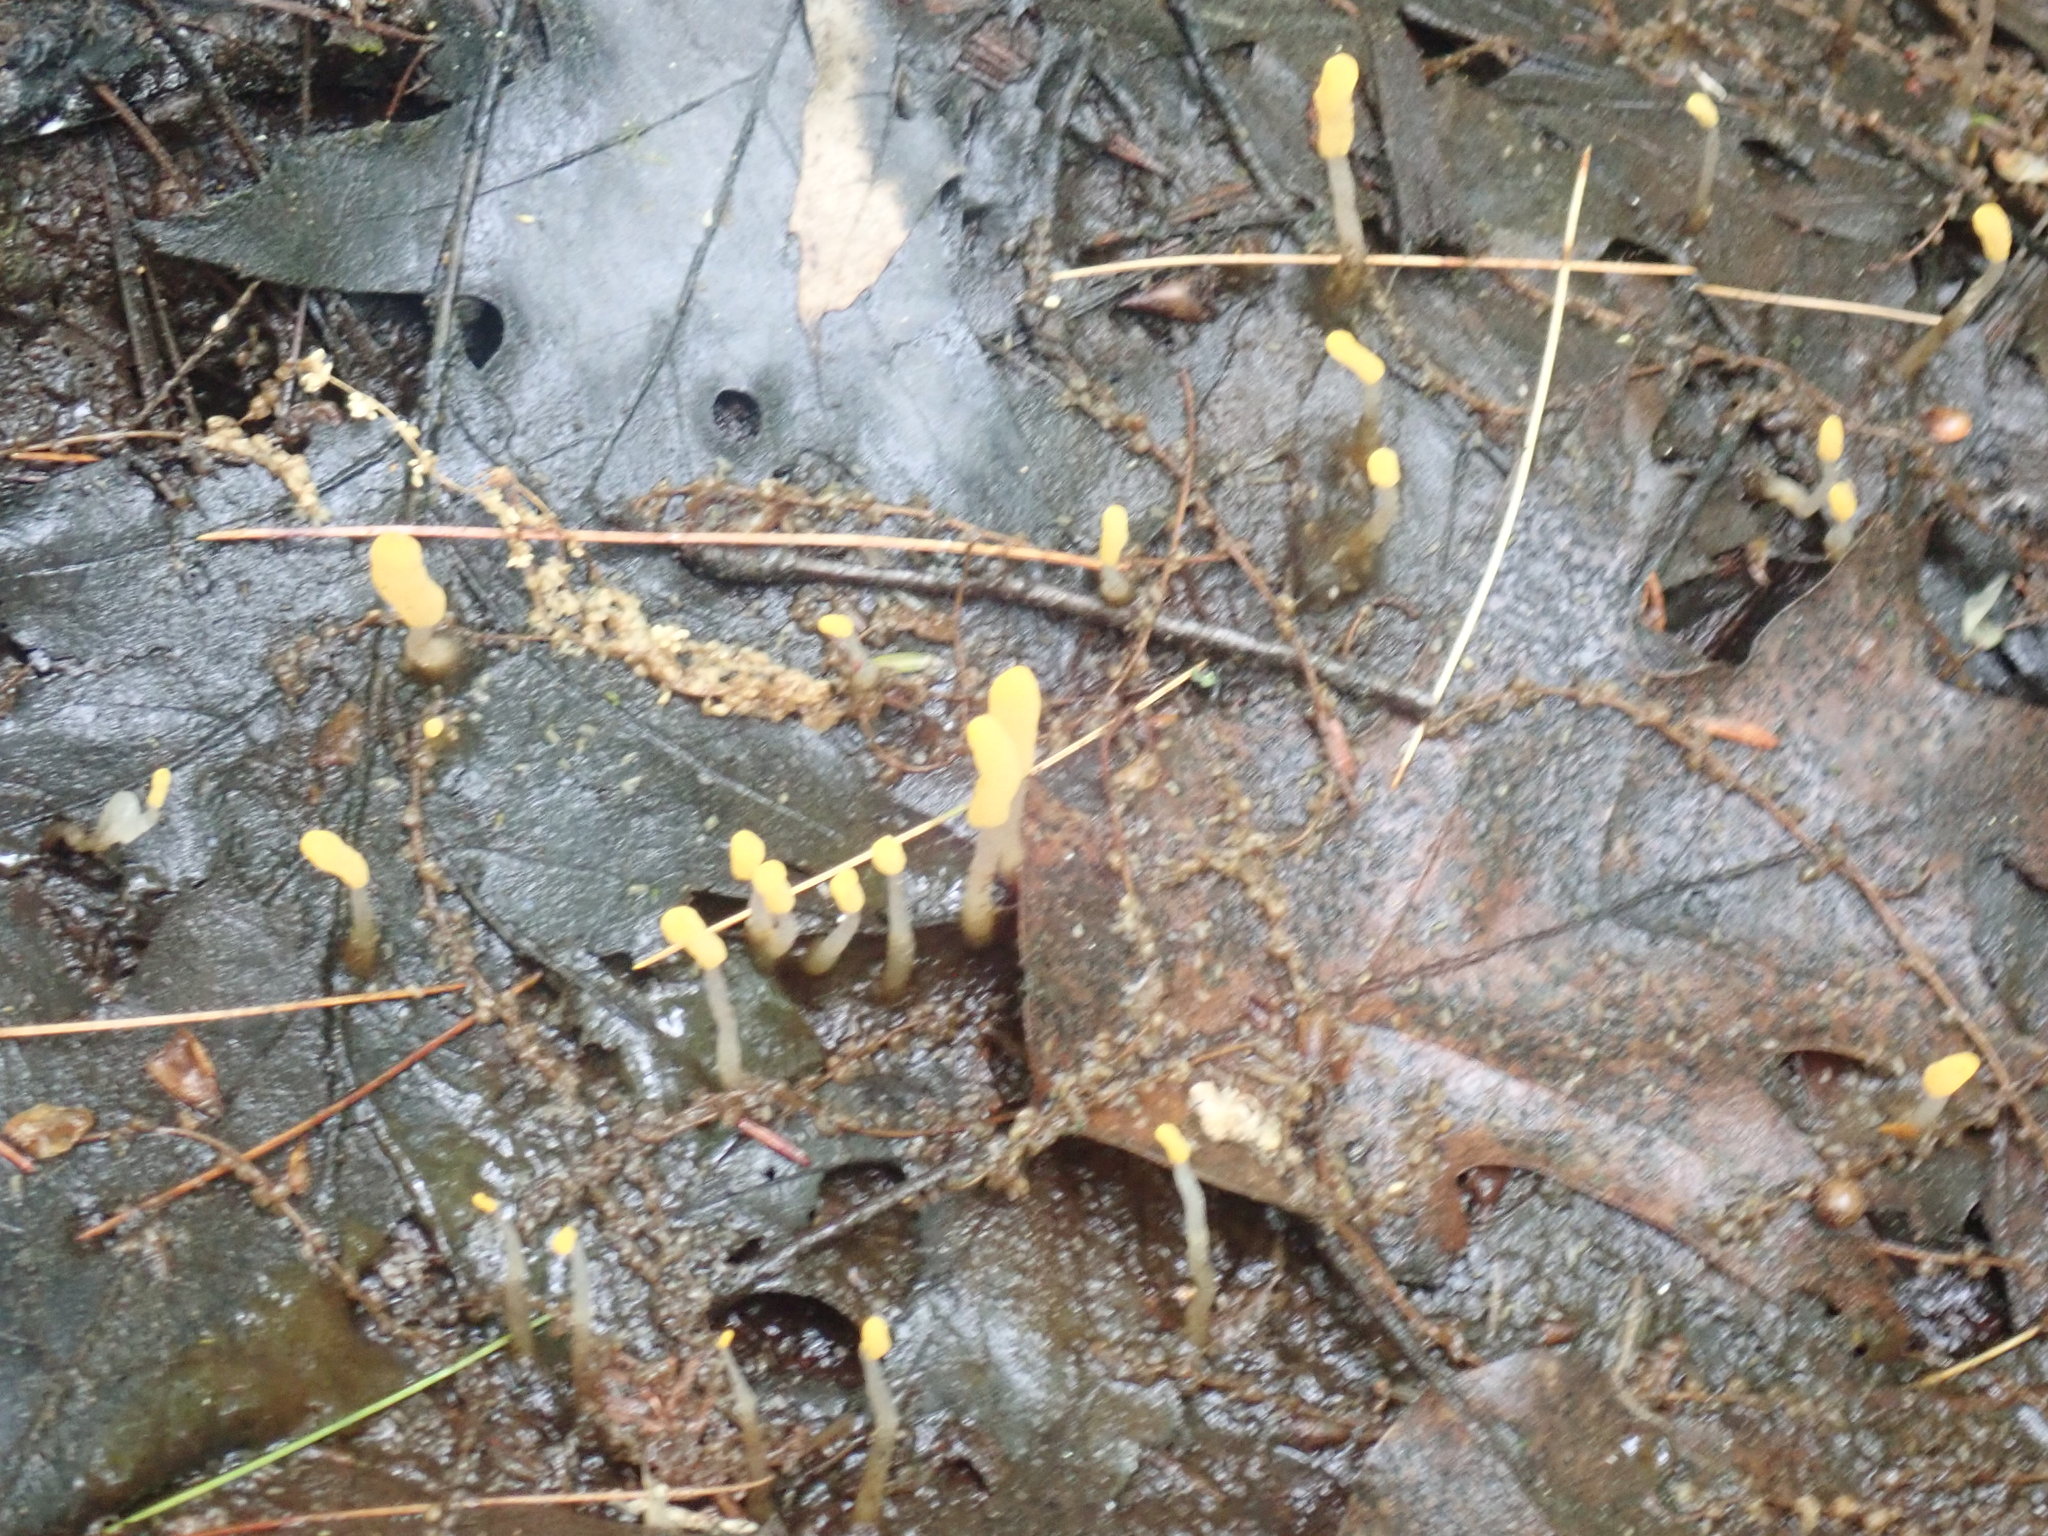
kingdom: Fungi
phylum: Ascomycota
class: Leotiomycetes
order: Helotiales
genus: Mitrula
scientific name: Mitrula
